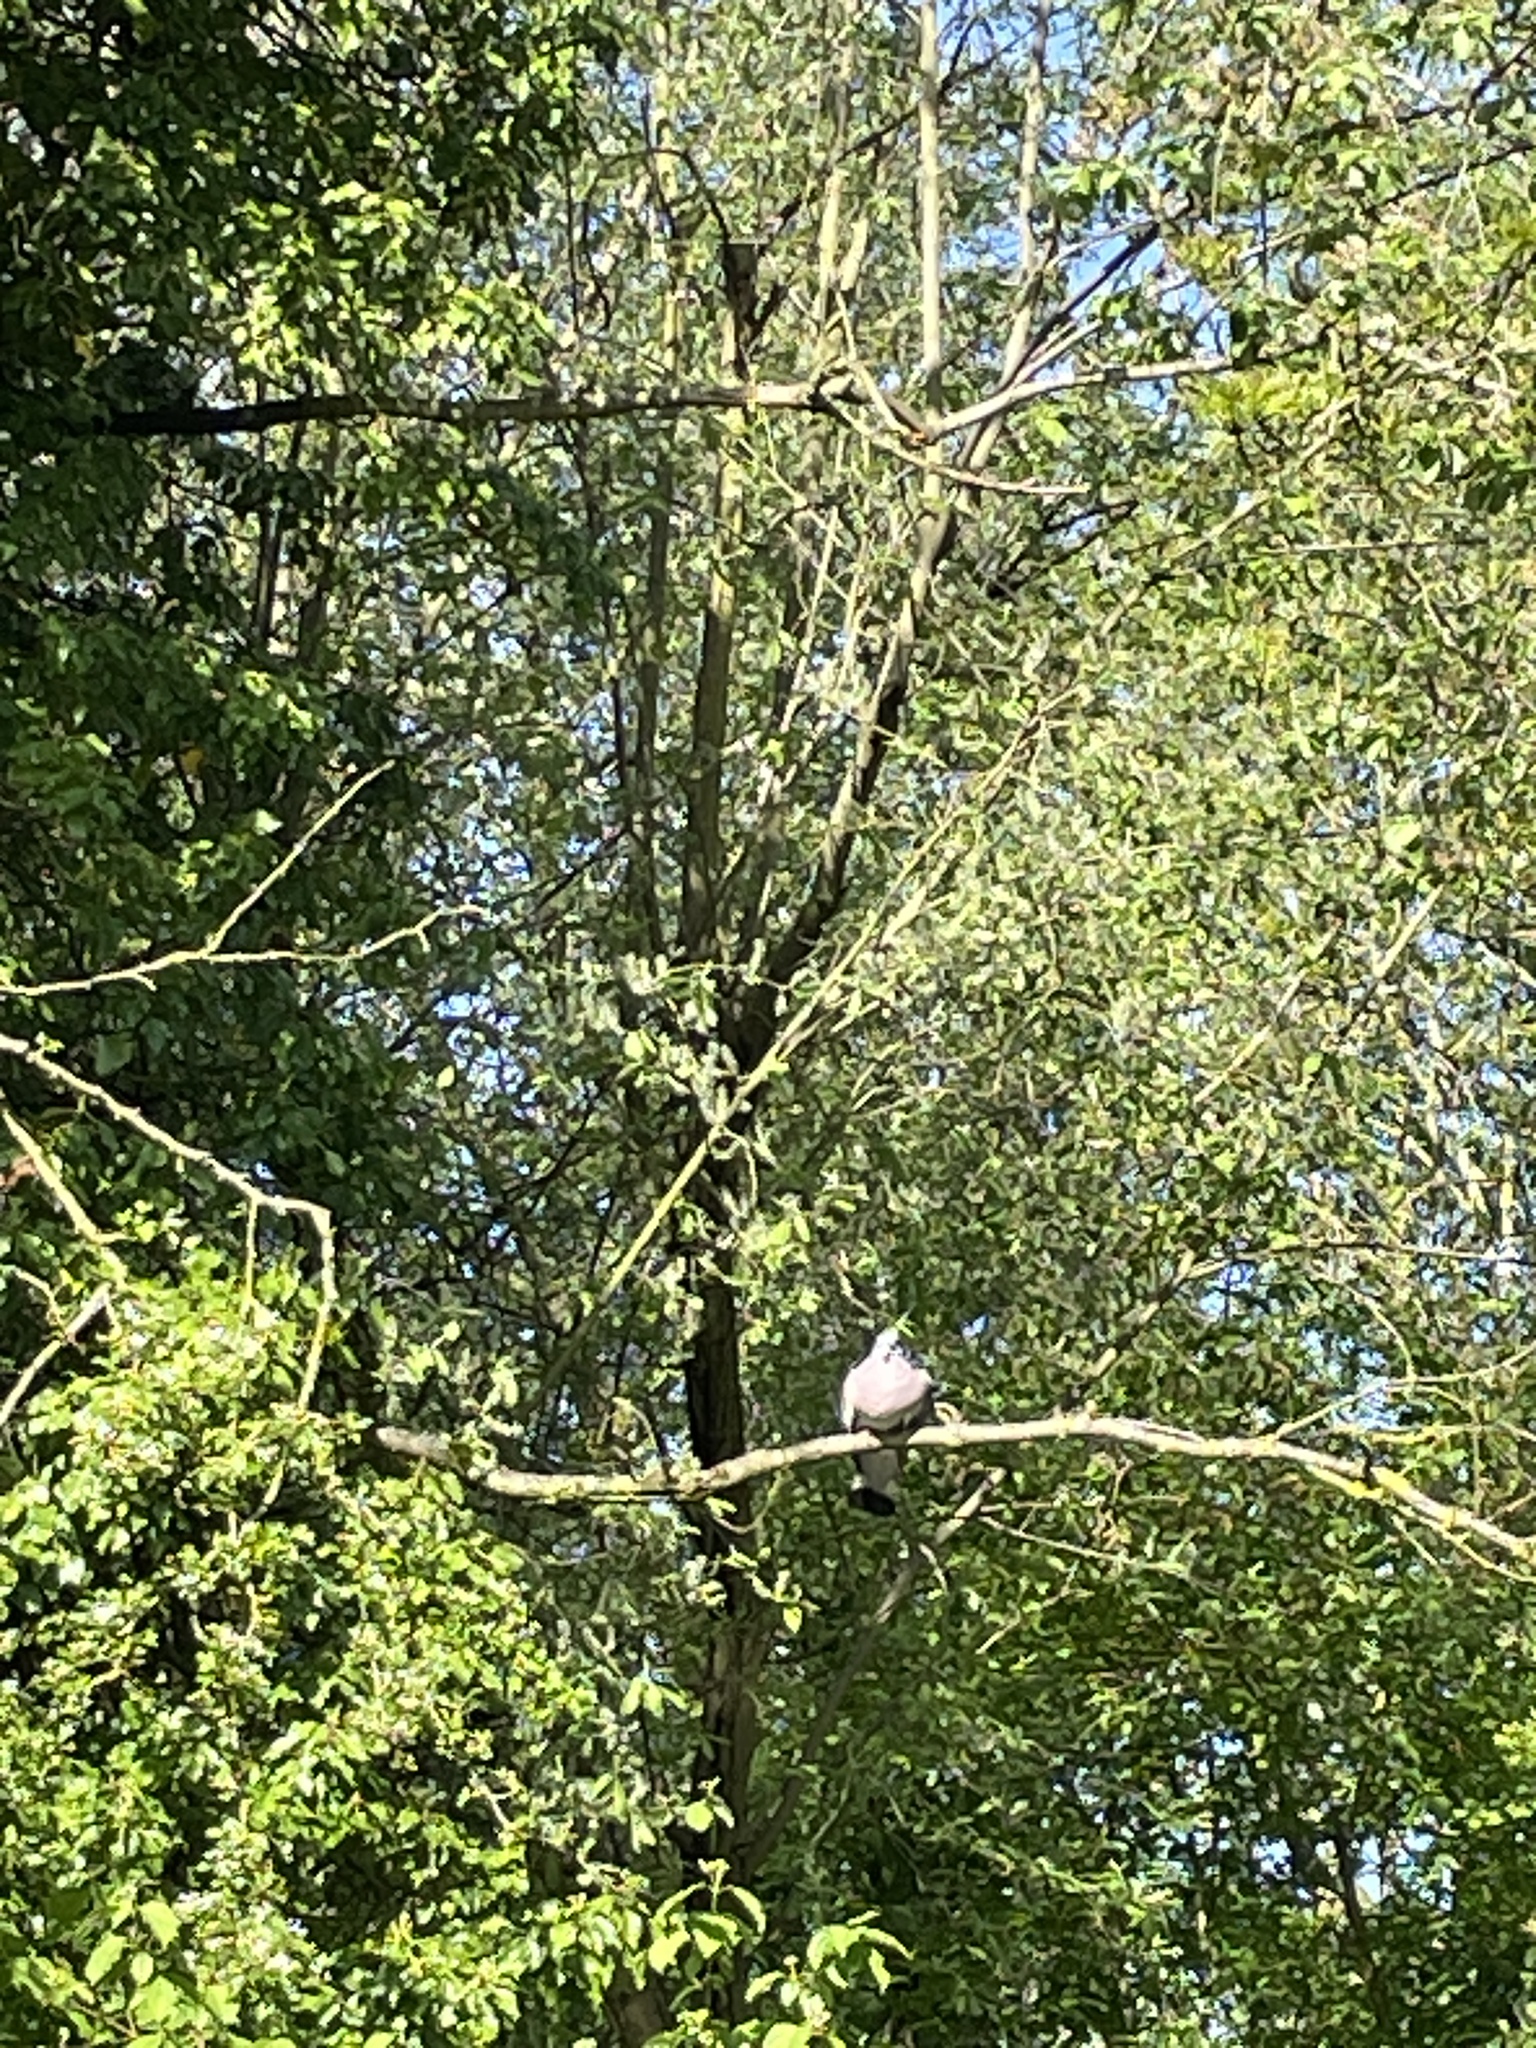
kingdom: Animalia
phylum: Chordata
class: Aves
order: Columbiformes
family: Columbidae
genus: Columba
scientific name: Columba palumbus
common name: Common wood pigeon
